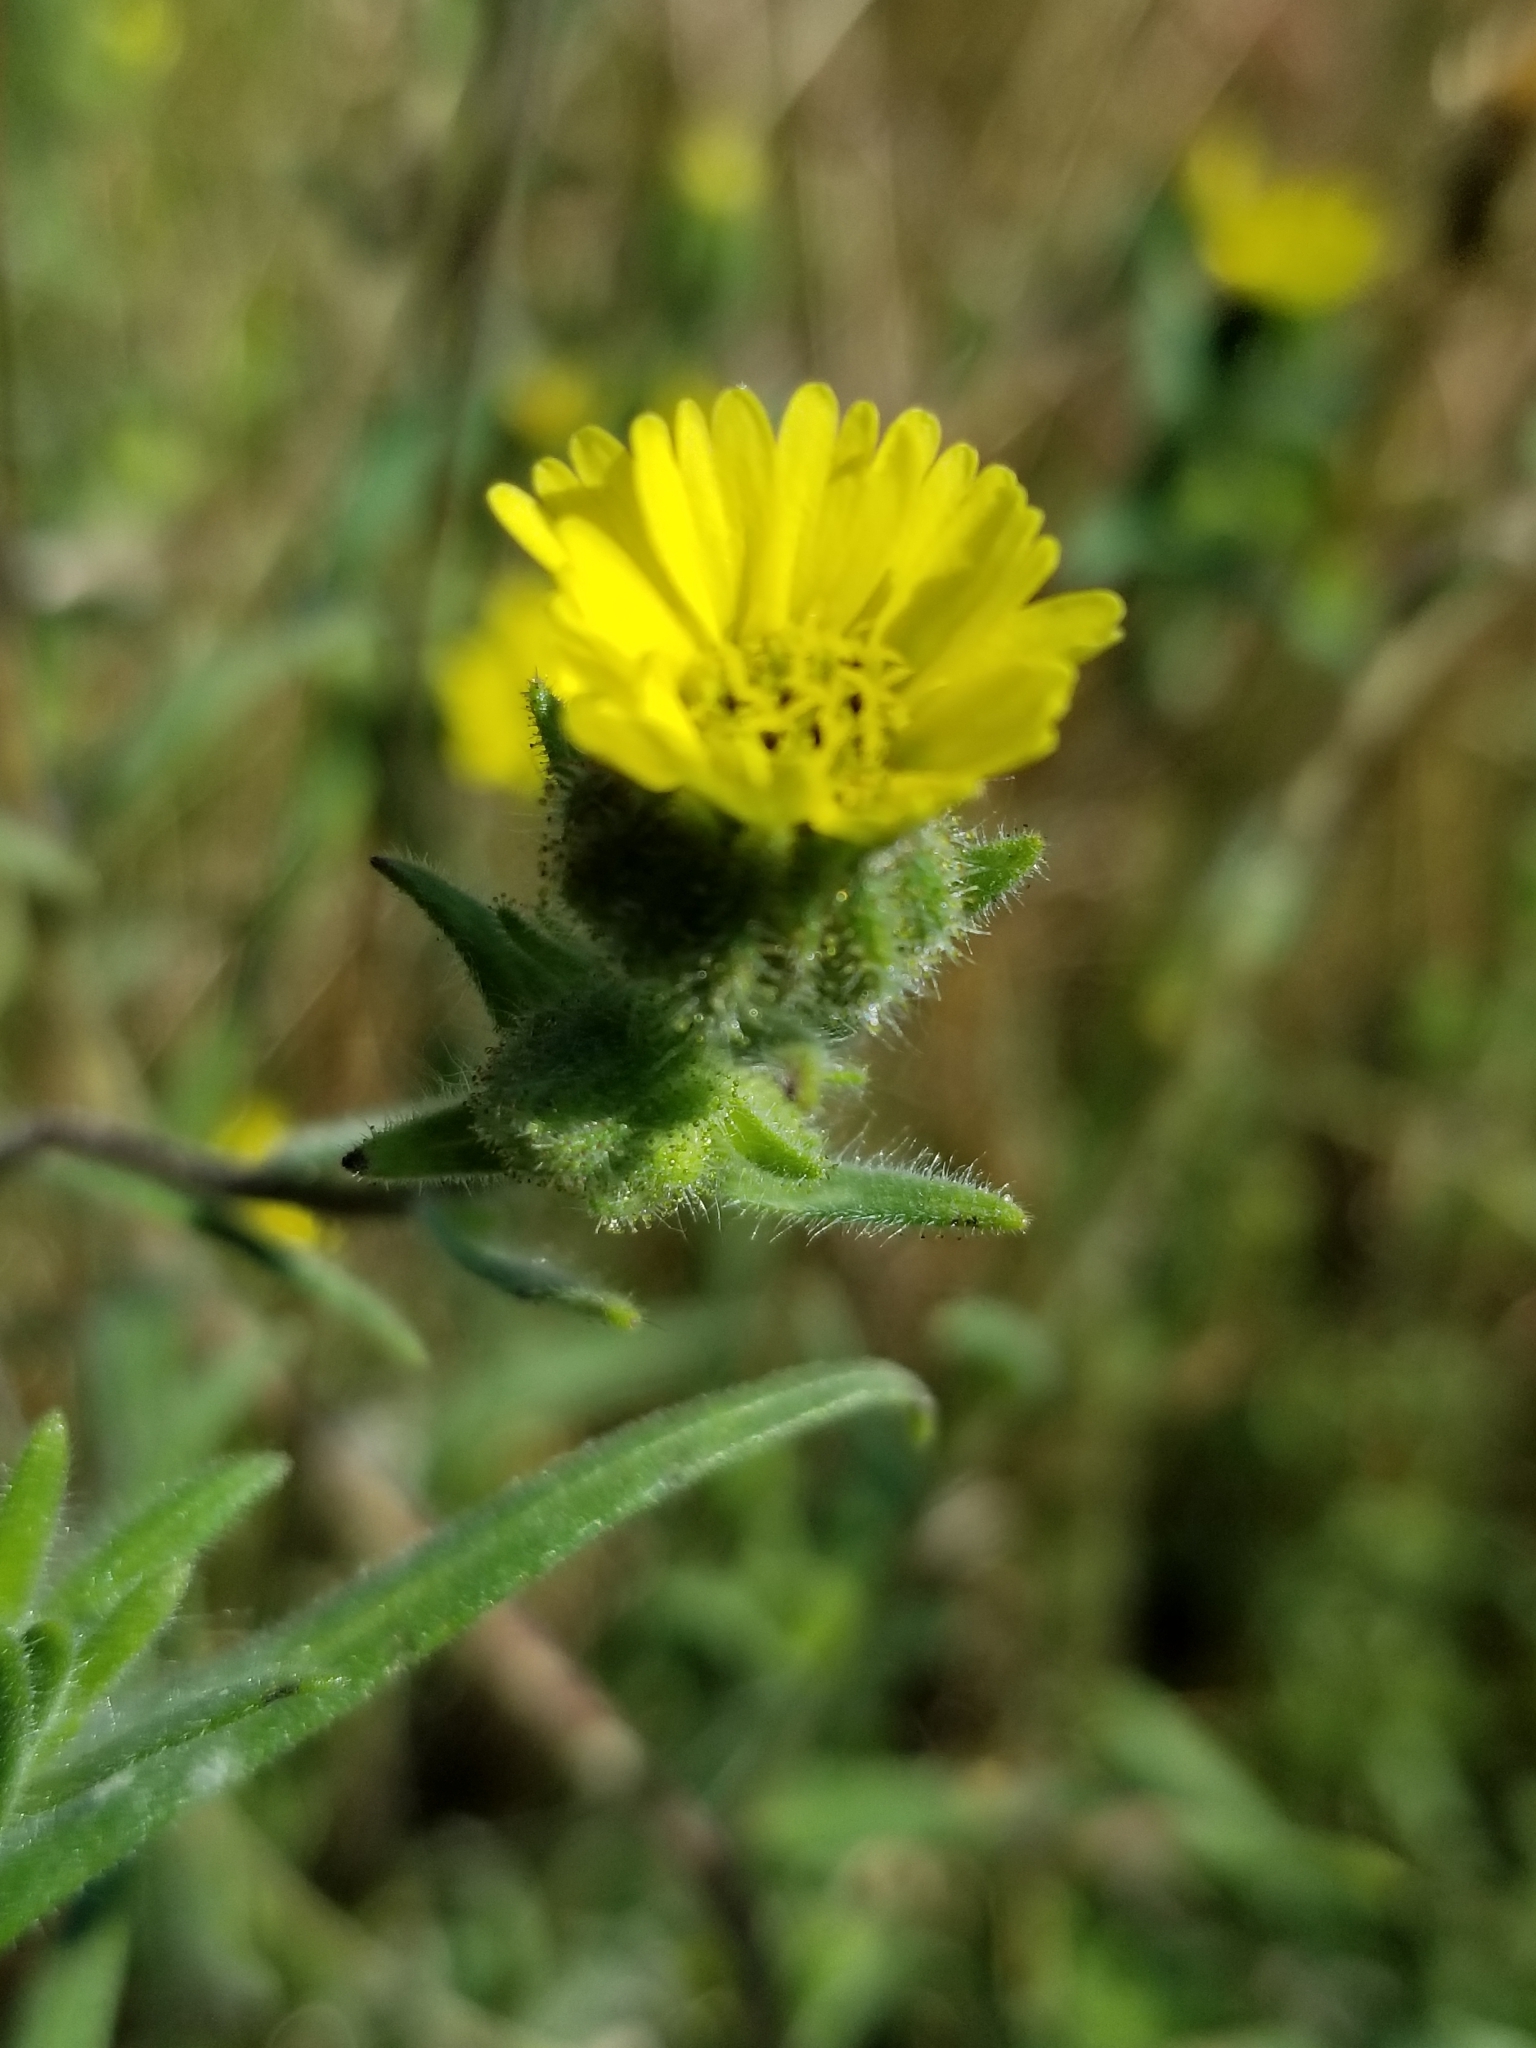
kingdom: Plantae
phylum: Tracheophyta
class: Magnoliopsida
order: Asterales
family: Asteraceae
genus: Madia
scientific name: Madia gracilis
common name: Grassy tarweed
